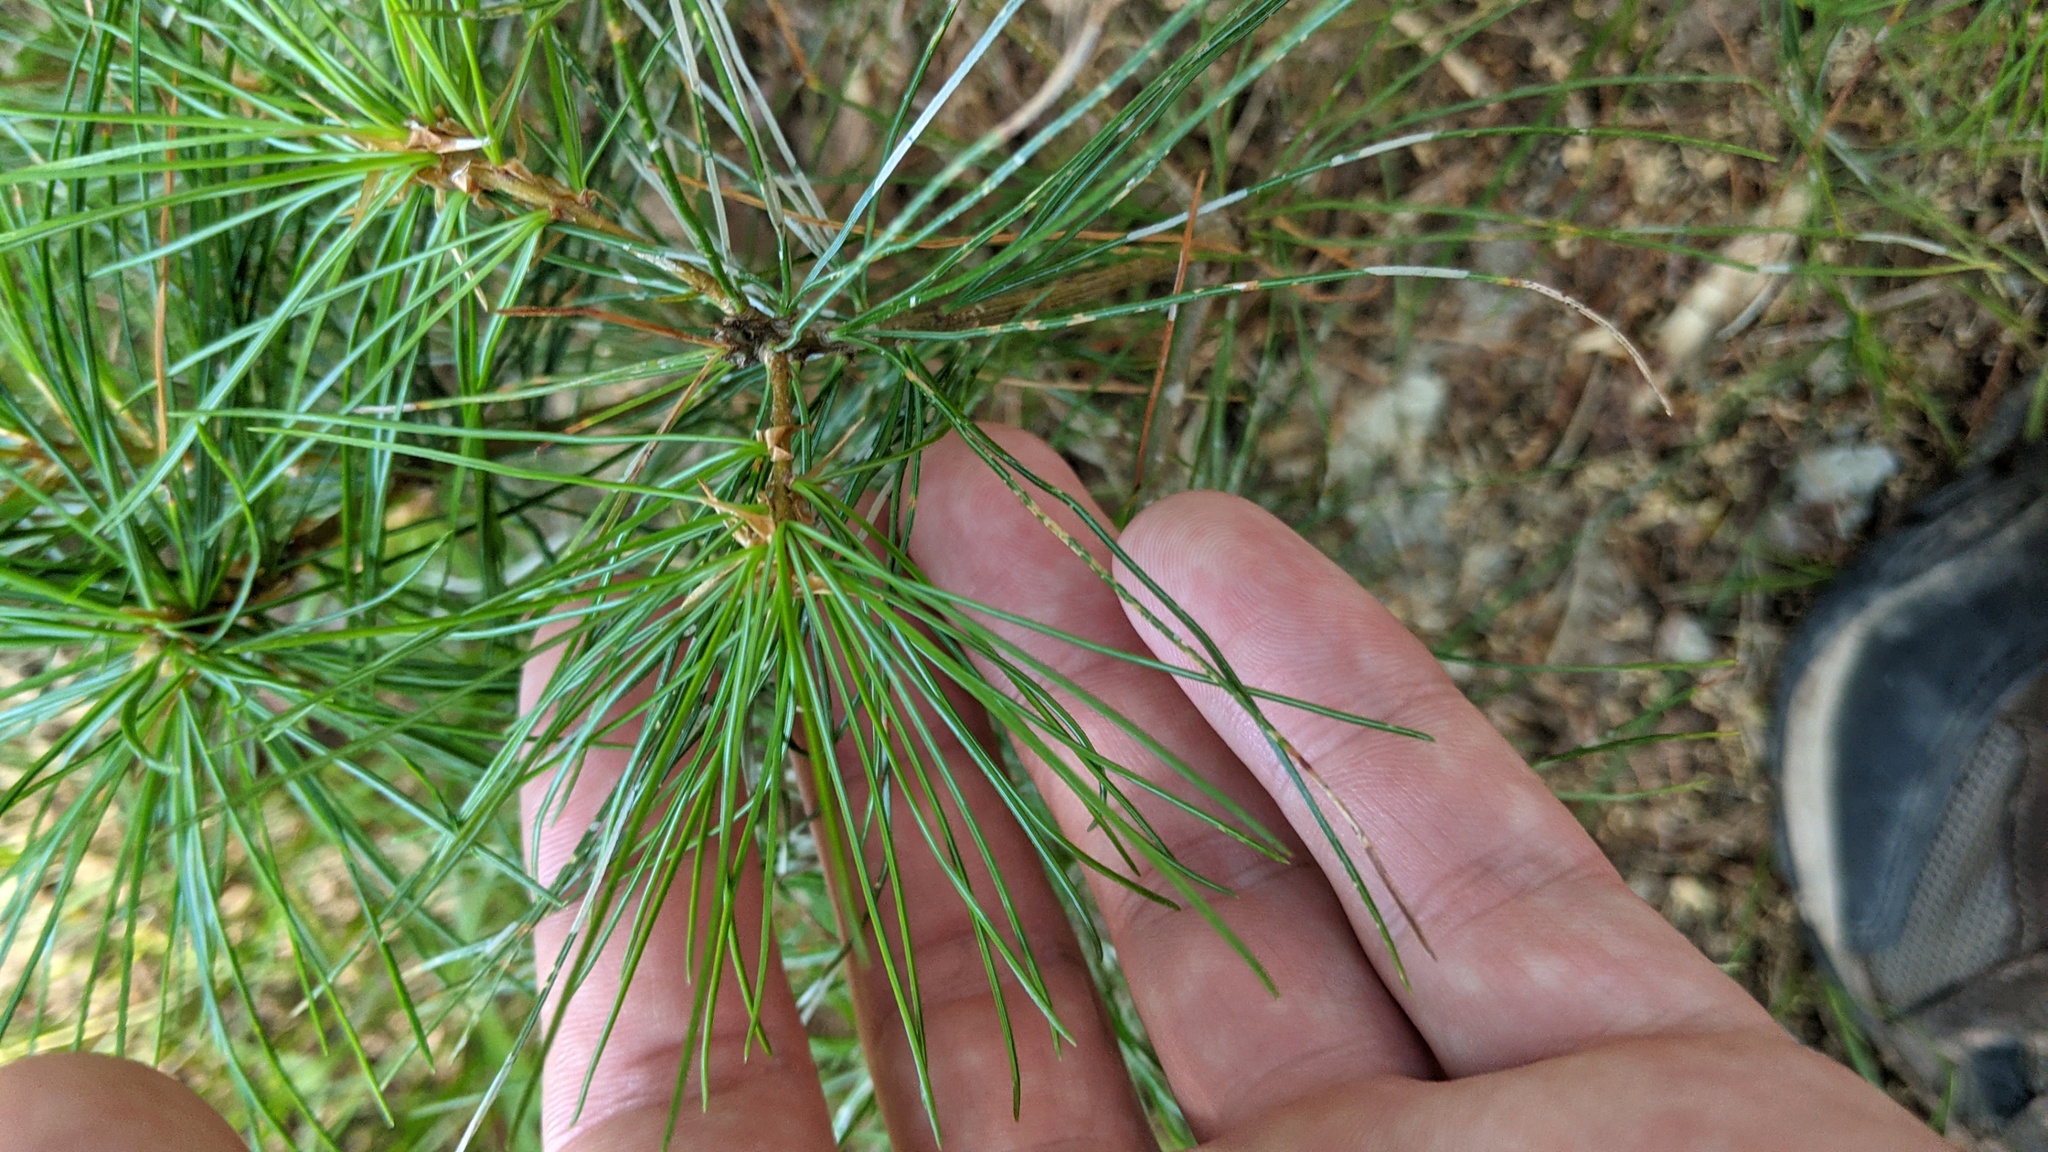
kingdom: Plantae
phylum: Tracheophyta
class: Pinopsida
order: Pinales
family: Pinaceae
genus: Pinus
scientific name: Pinus strobus
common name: Weymouth pine
